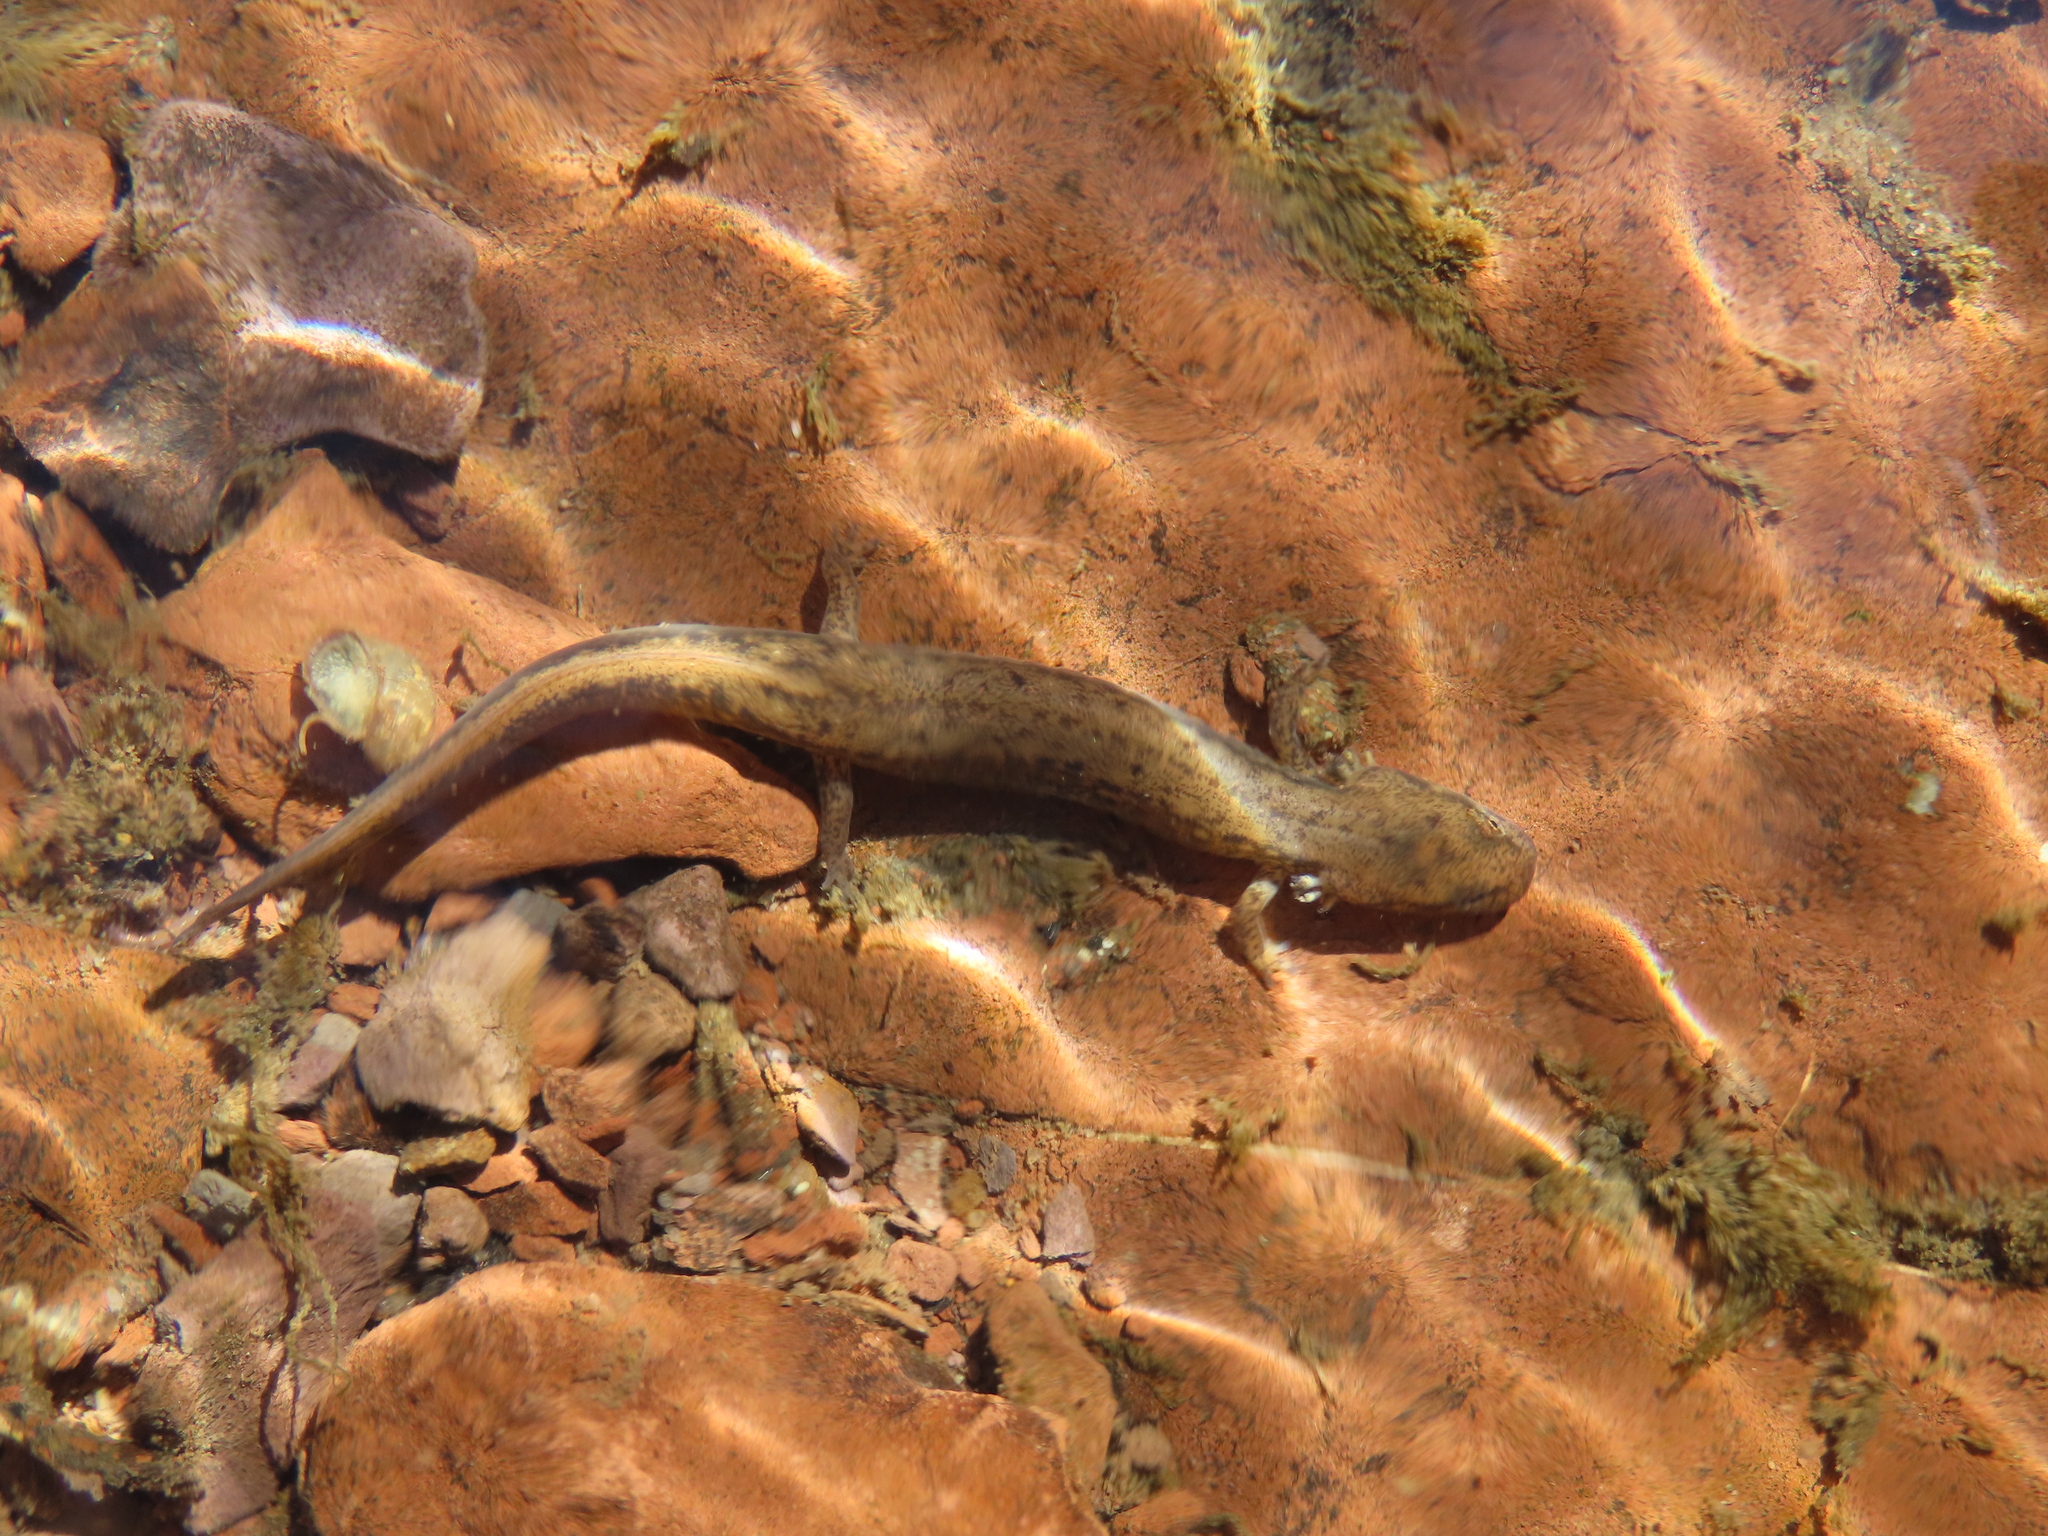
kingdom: Animalia
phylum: Chordata
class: Amphibia
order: Caudata
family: Plethodontidae
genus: Eurycea
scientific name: Eurycea bislineata
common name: Northern two-lined salamander
